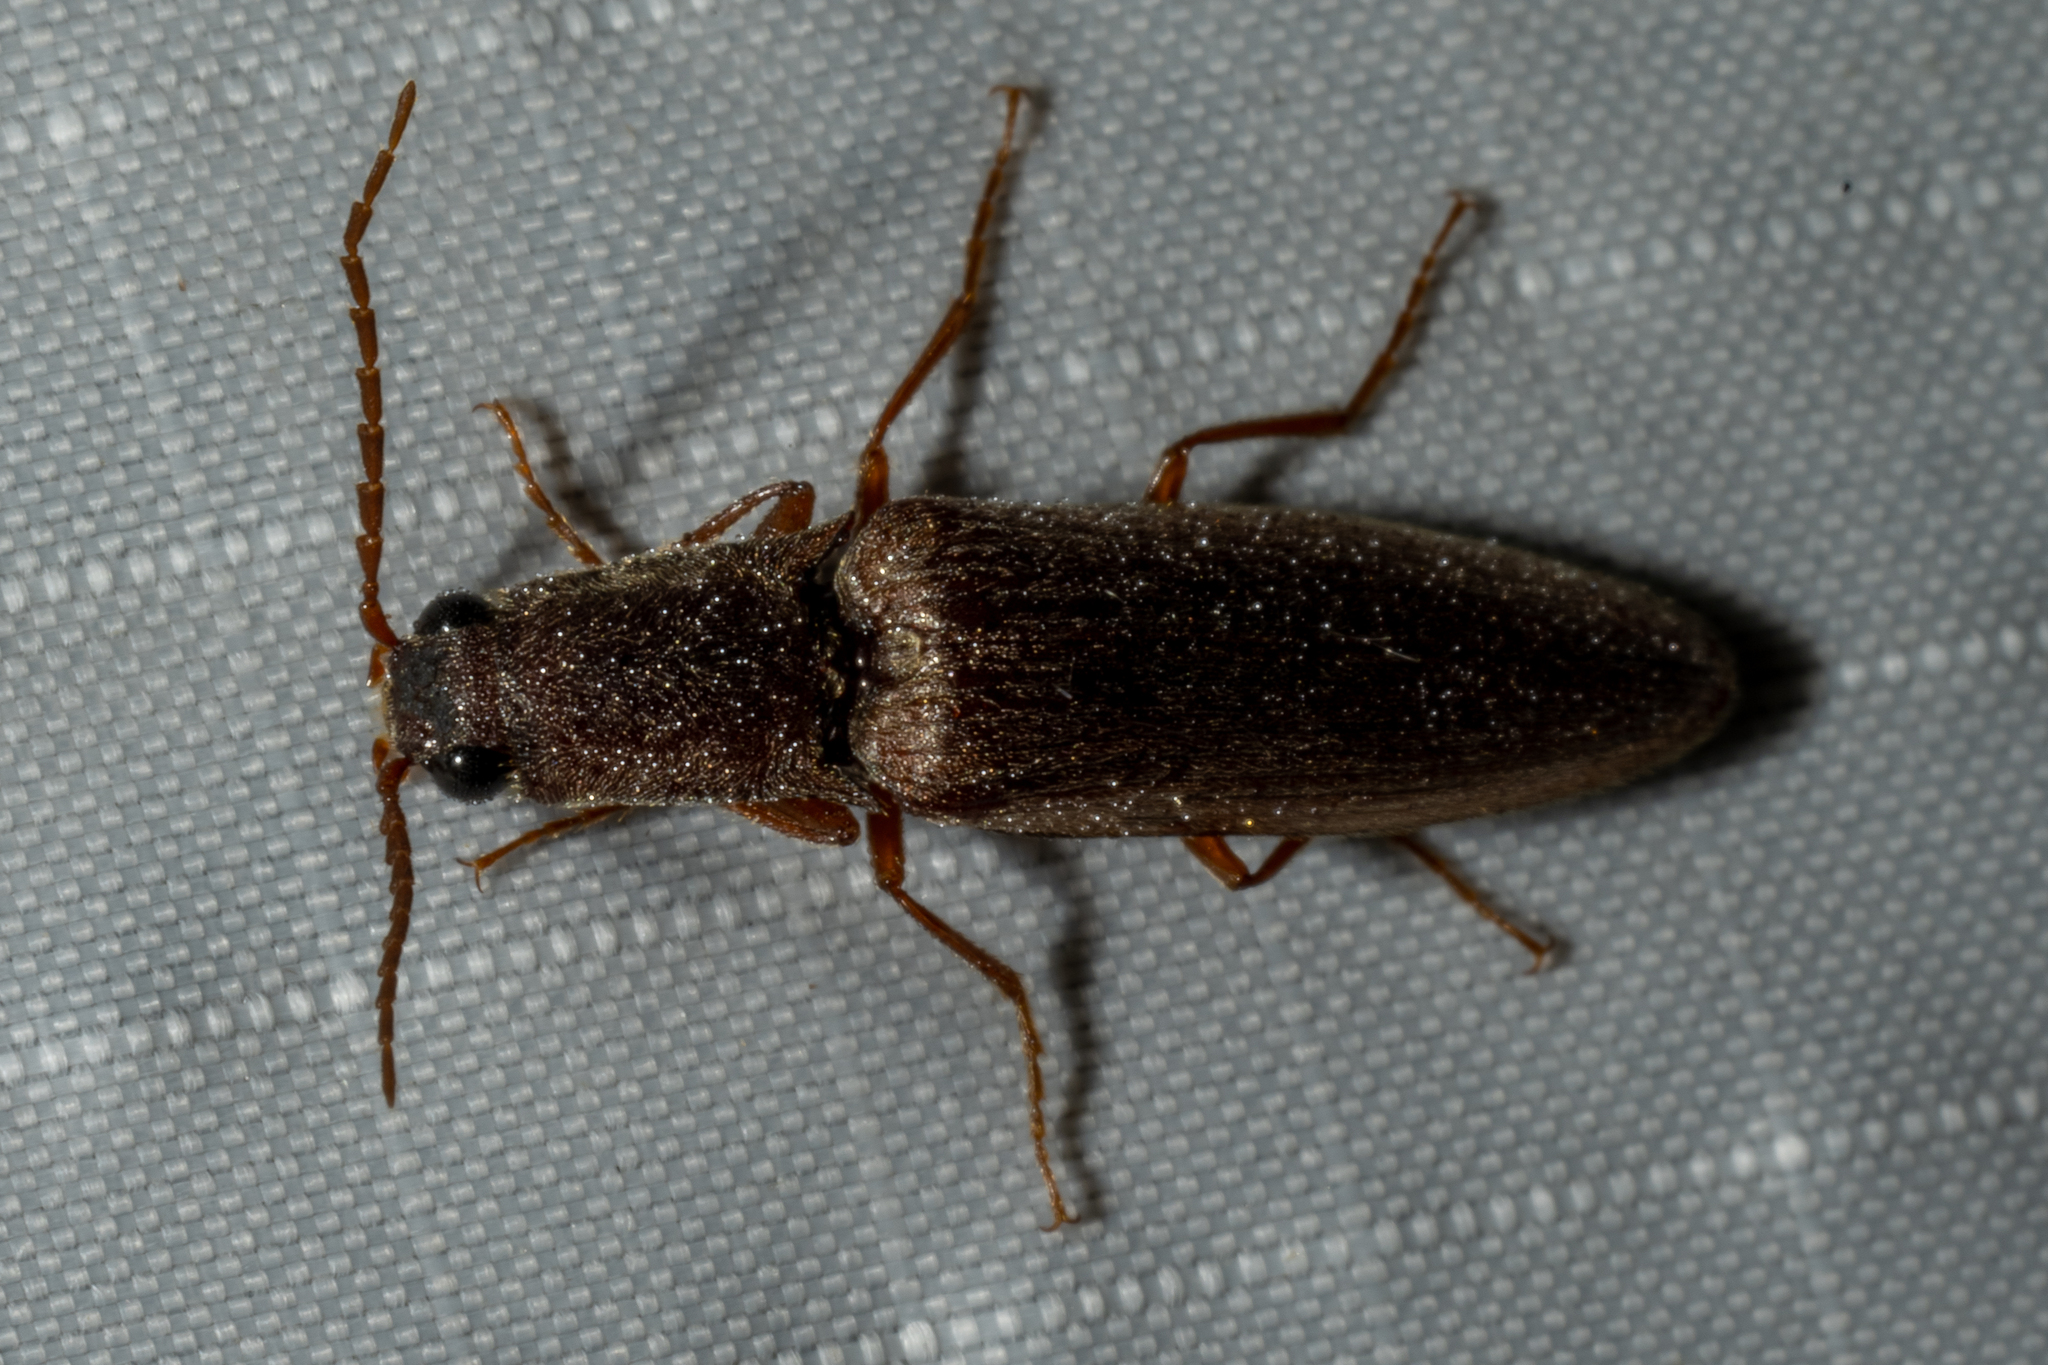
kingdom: Animalia
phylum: Arthropoda
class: Insecta
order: Coleoptera
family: Elateridae
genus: Proludius
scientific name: Proludius pyrros
